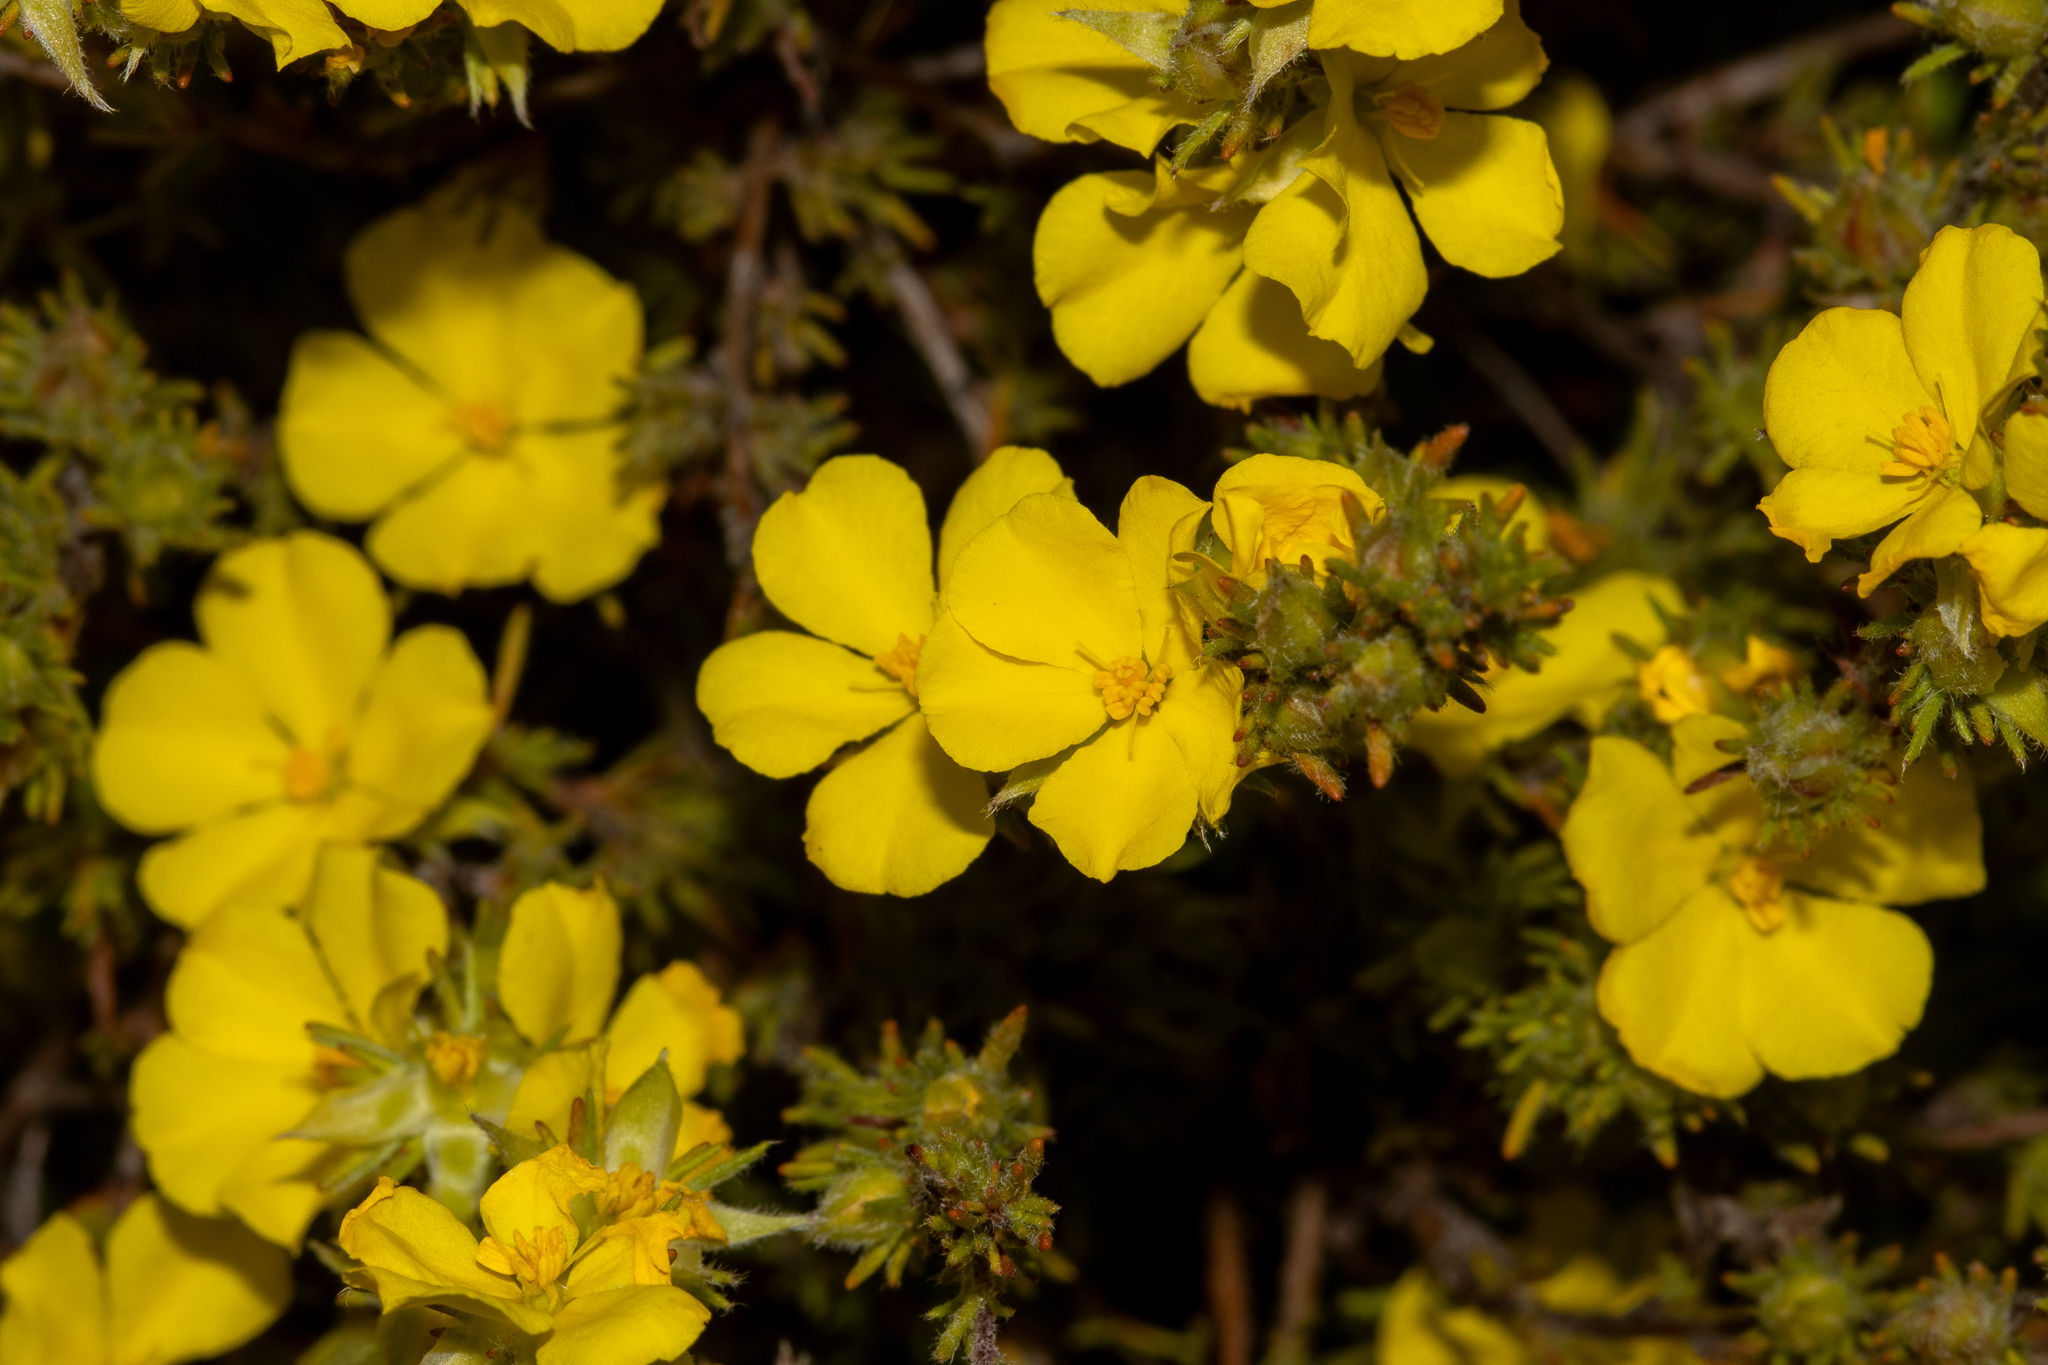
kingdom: Plantae
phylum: Tracheophyta
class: Magnoliopsida
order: Dilleniales
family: Dilleniaceae
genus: Hibbertia
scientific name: Hibbertia fasciculata
